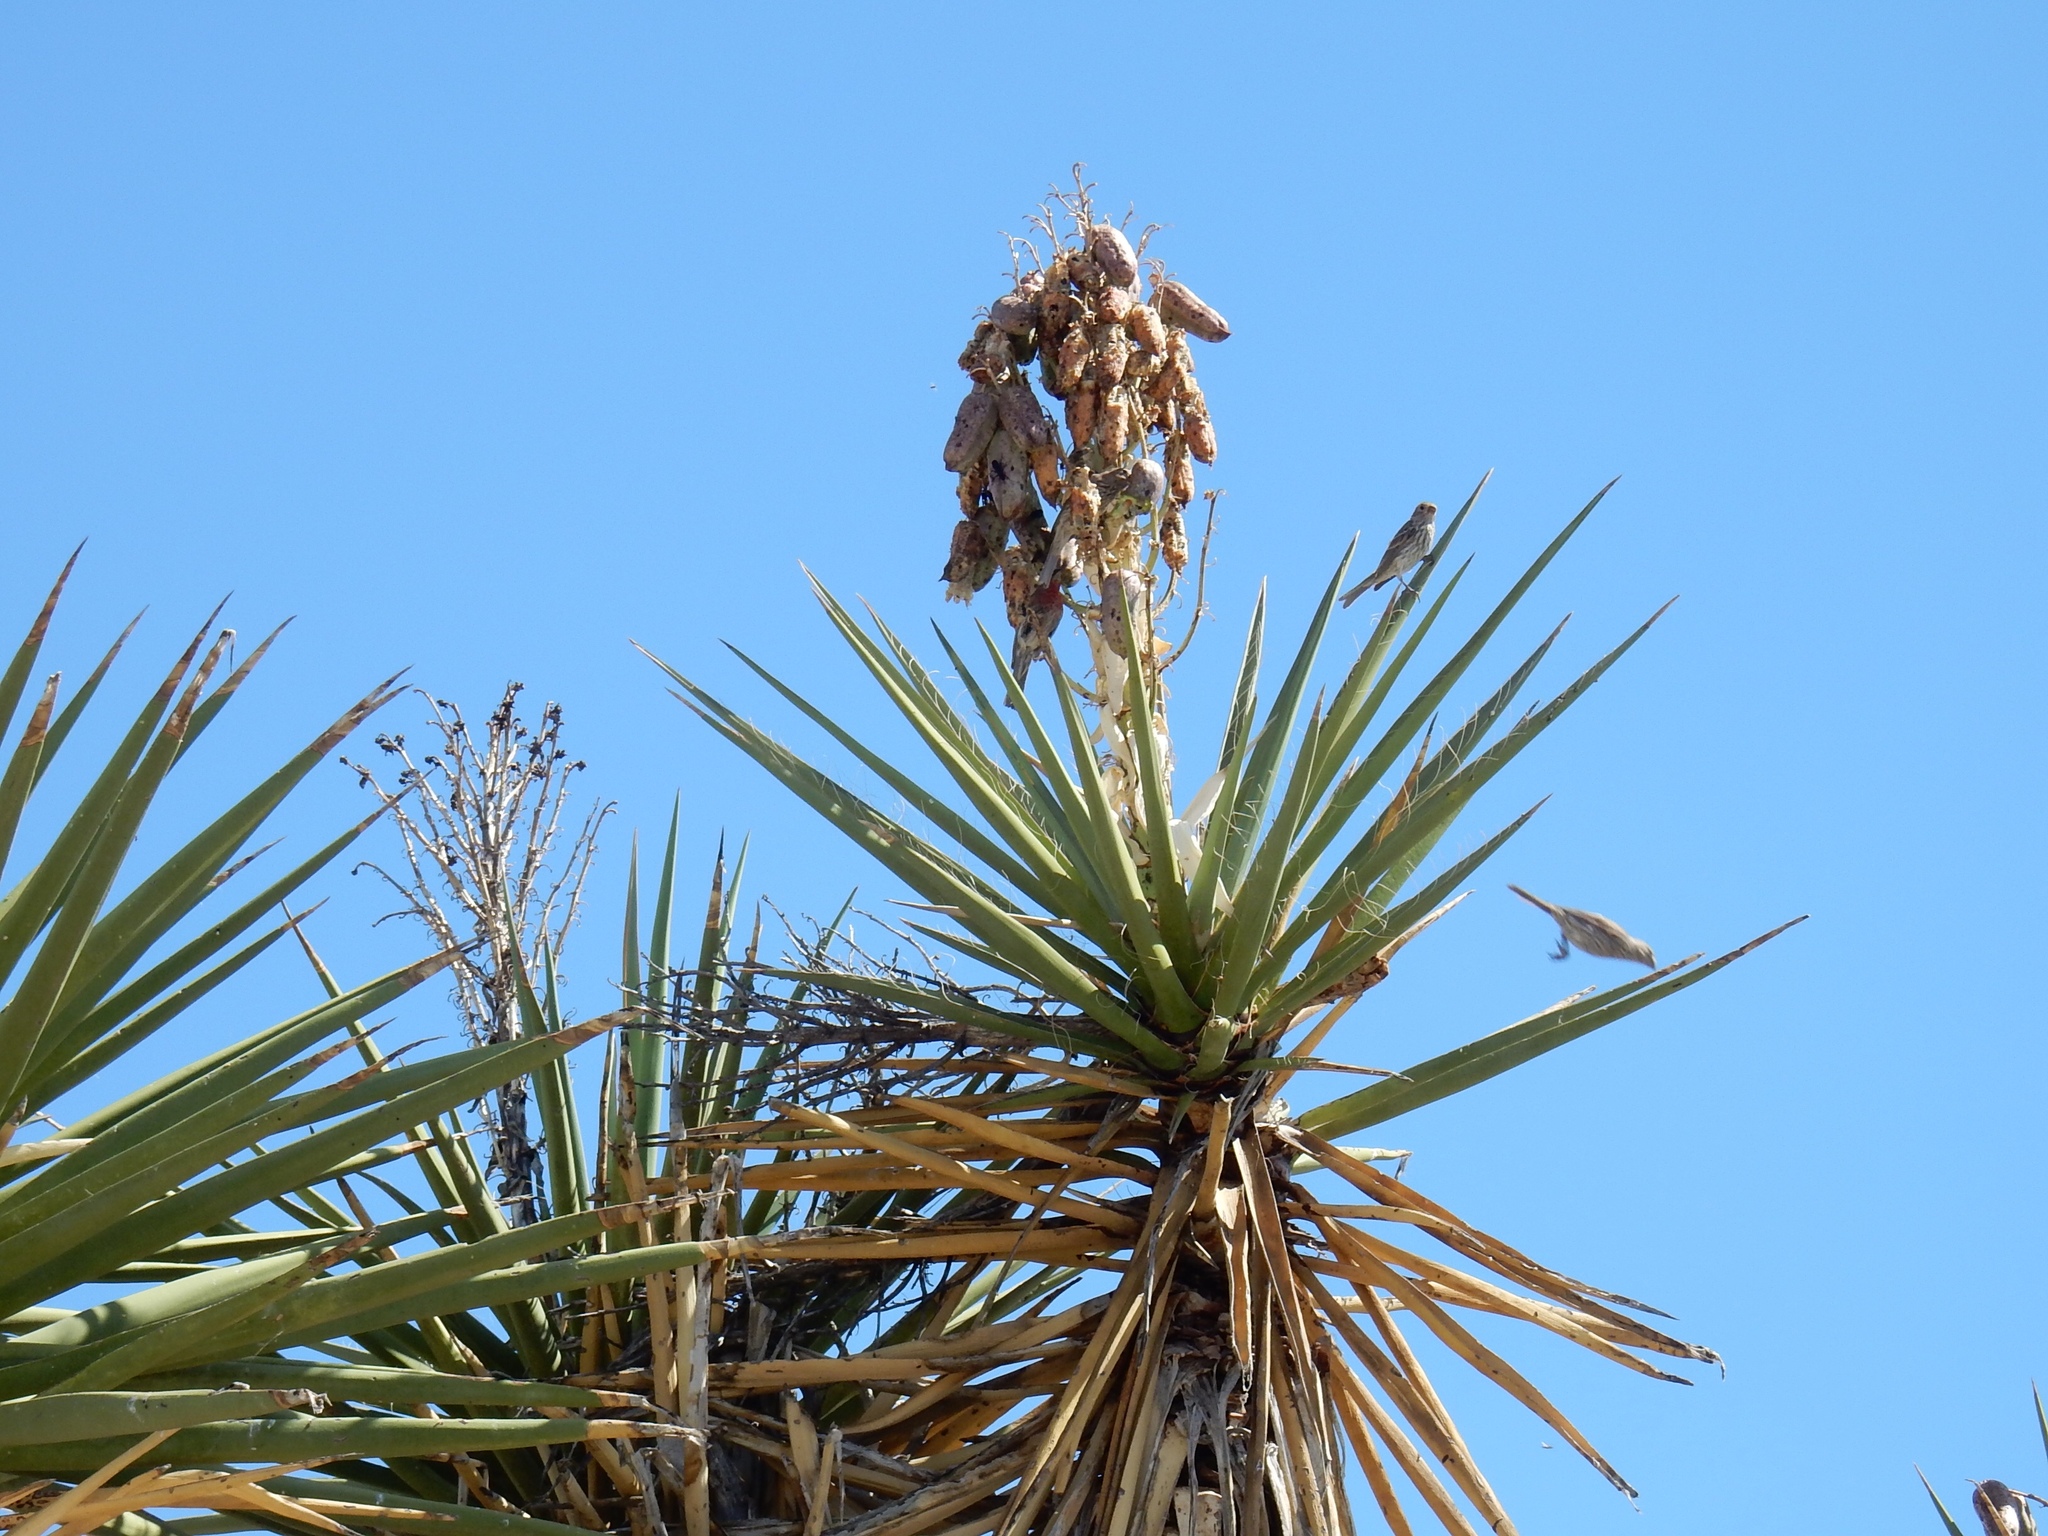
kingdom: Animalia
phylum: Chordata
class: Aves
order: Passeriformes
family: Fringillidae
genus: Haemorhous
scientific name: Haemorhous mexicanus
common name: House finch
